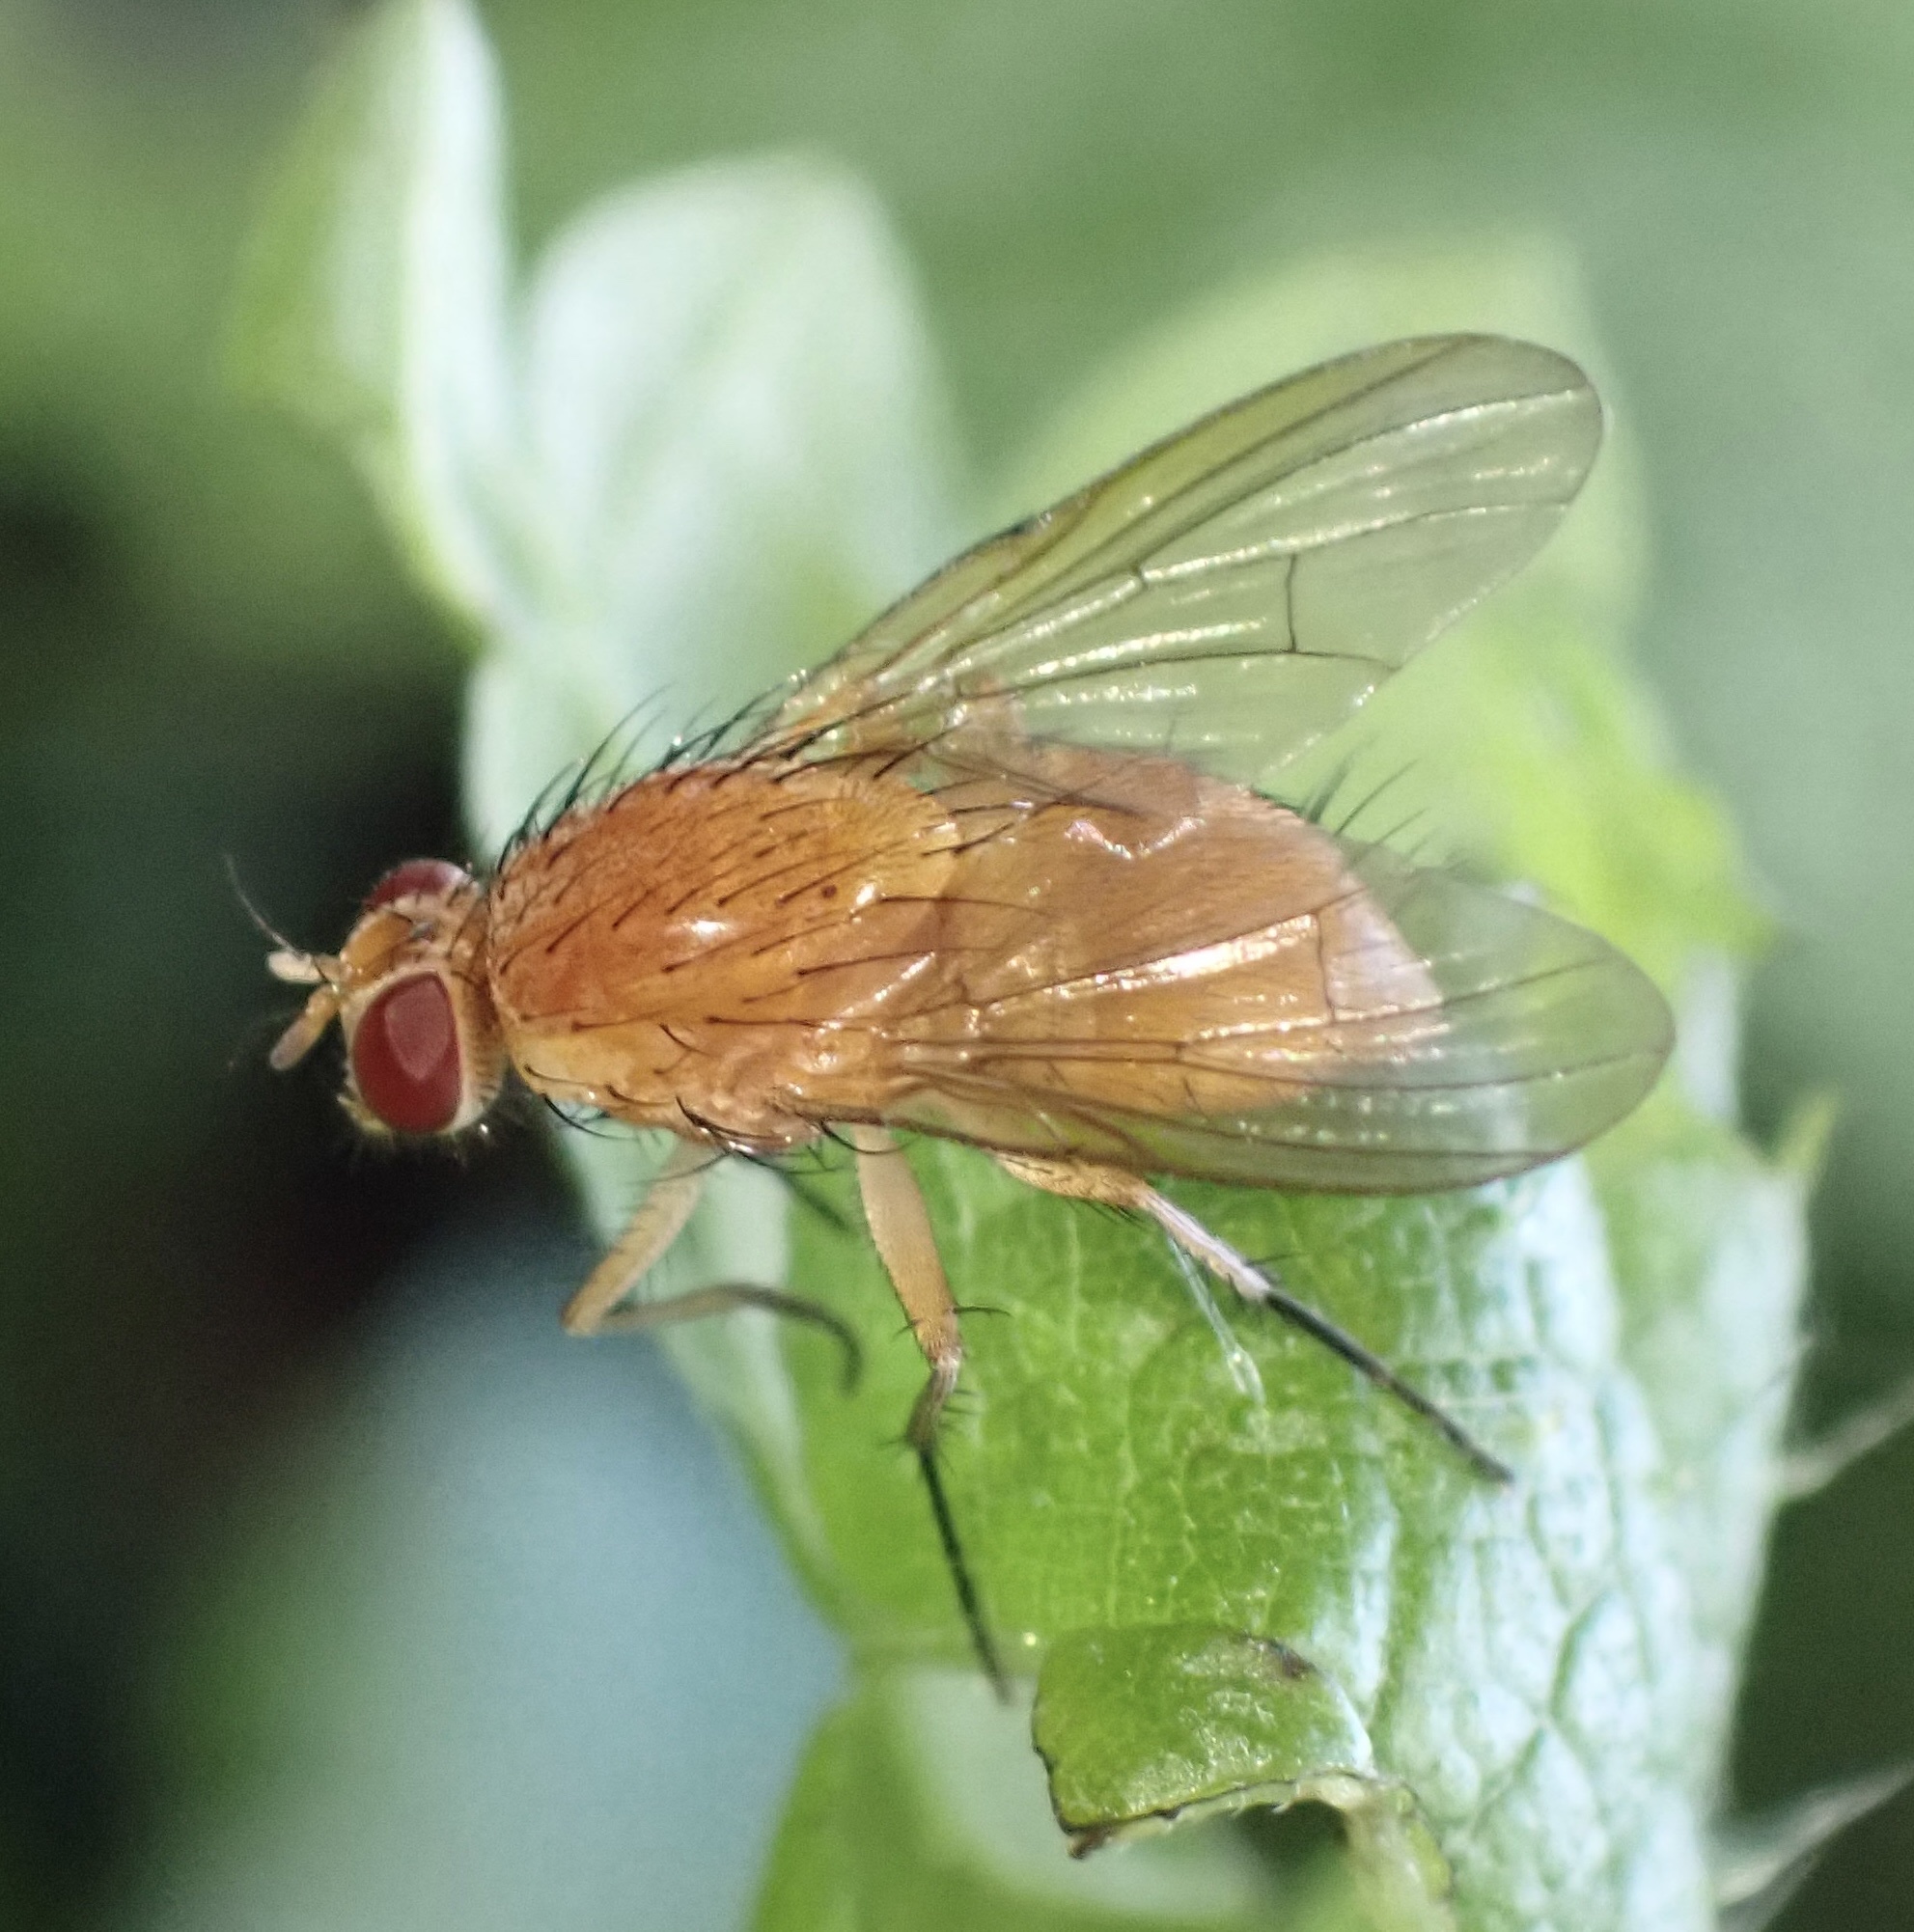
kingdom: Animalia
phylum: Arthropoda
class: Insecta
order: Diptera
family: Muscidae
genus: Phaonia
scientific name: Phaonia pallida
